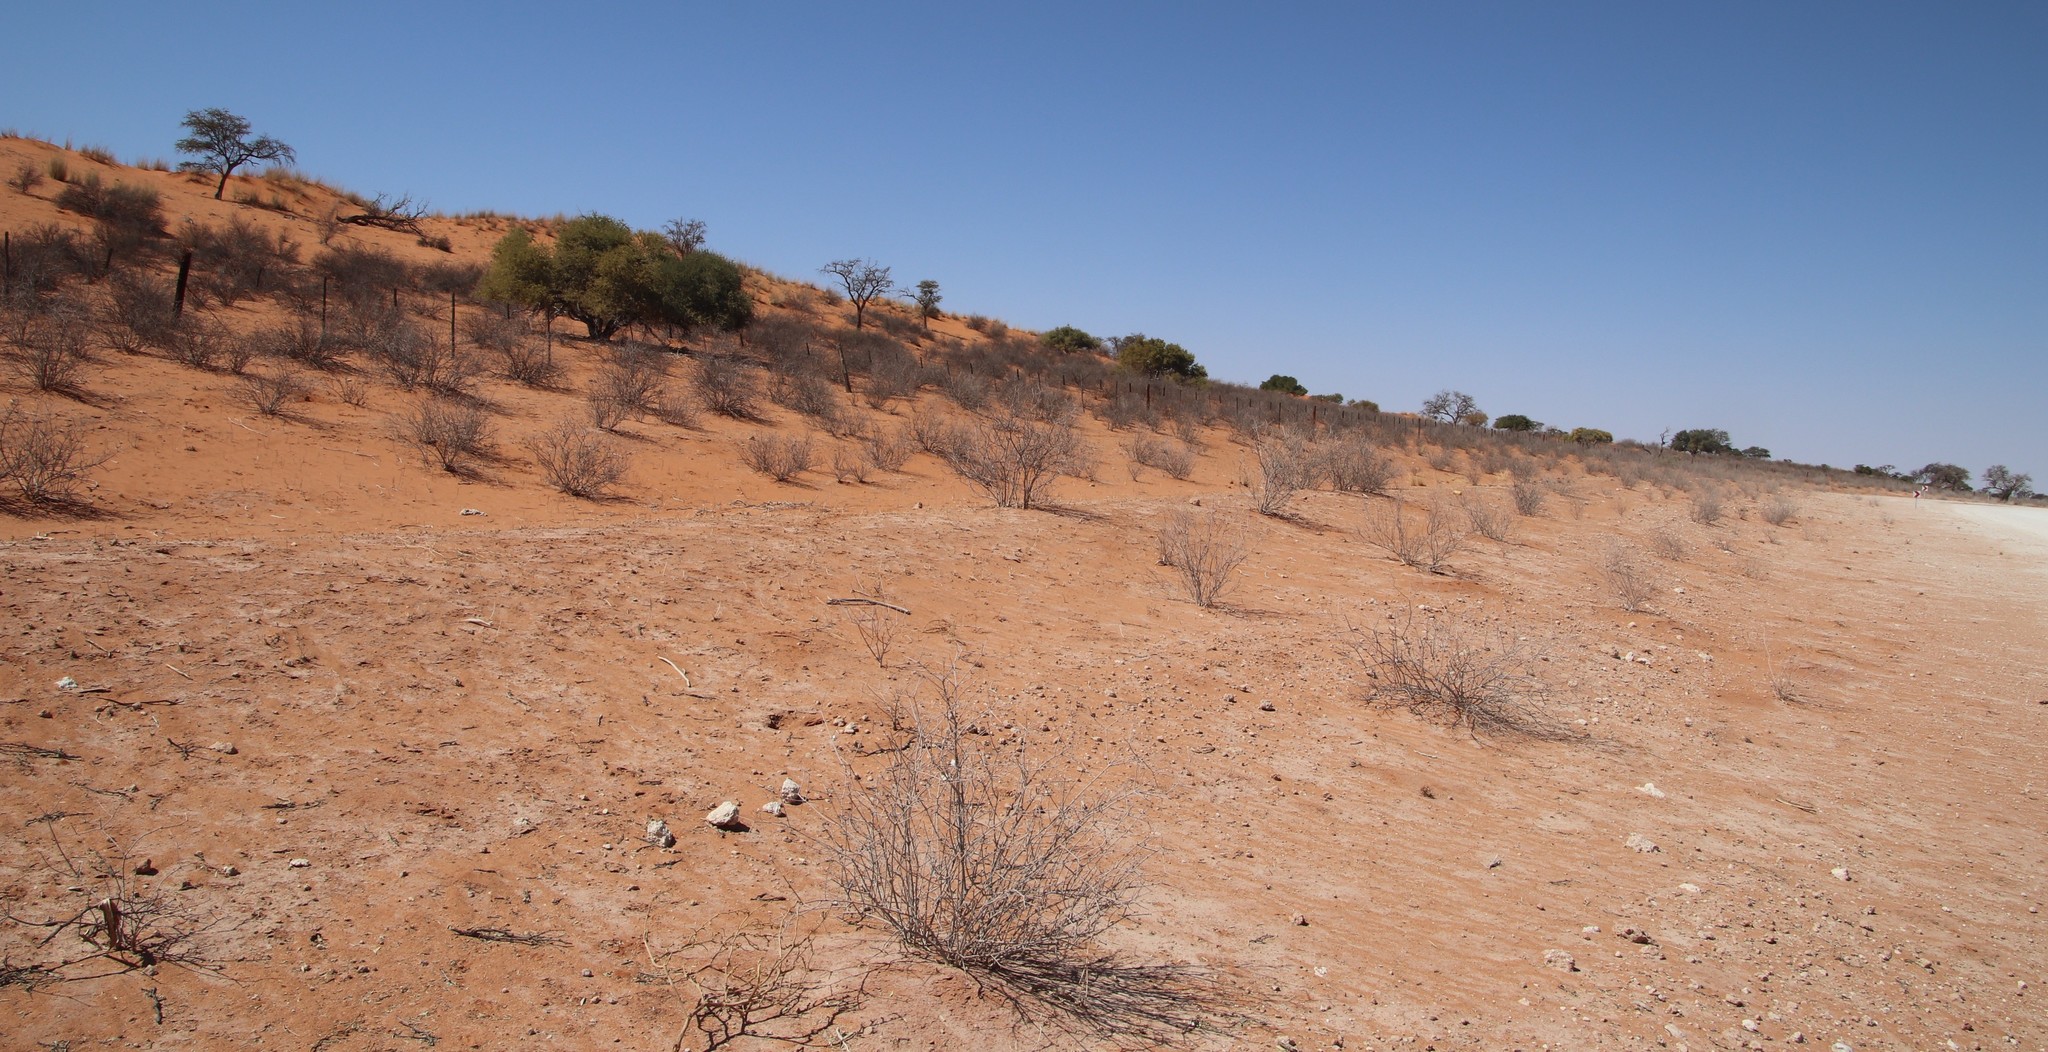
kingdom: Plantae
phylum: Tracheophyta
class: Magnoliopsida
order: Lamiales
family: Bignoniaceae
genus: Rhigozum
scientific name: Rhigozum trichotomum
